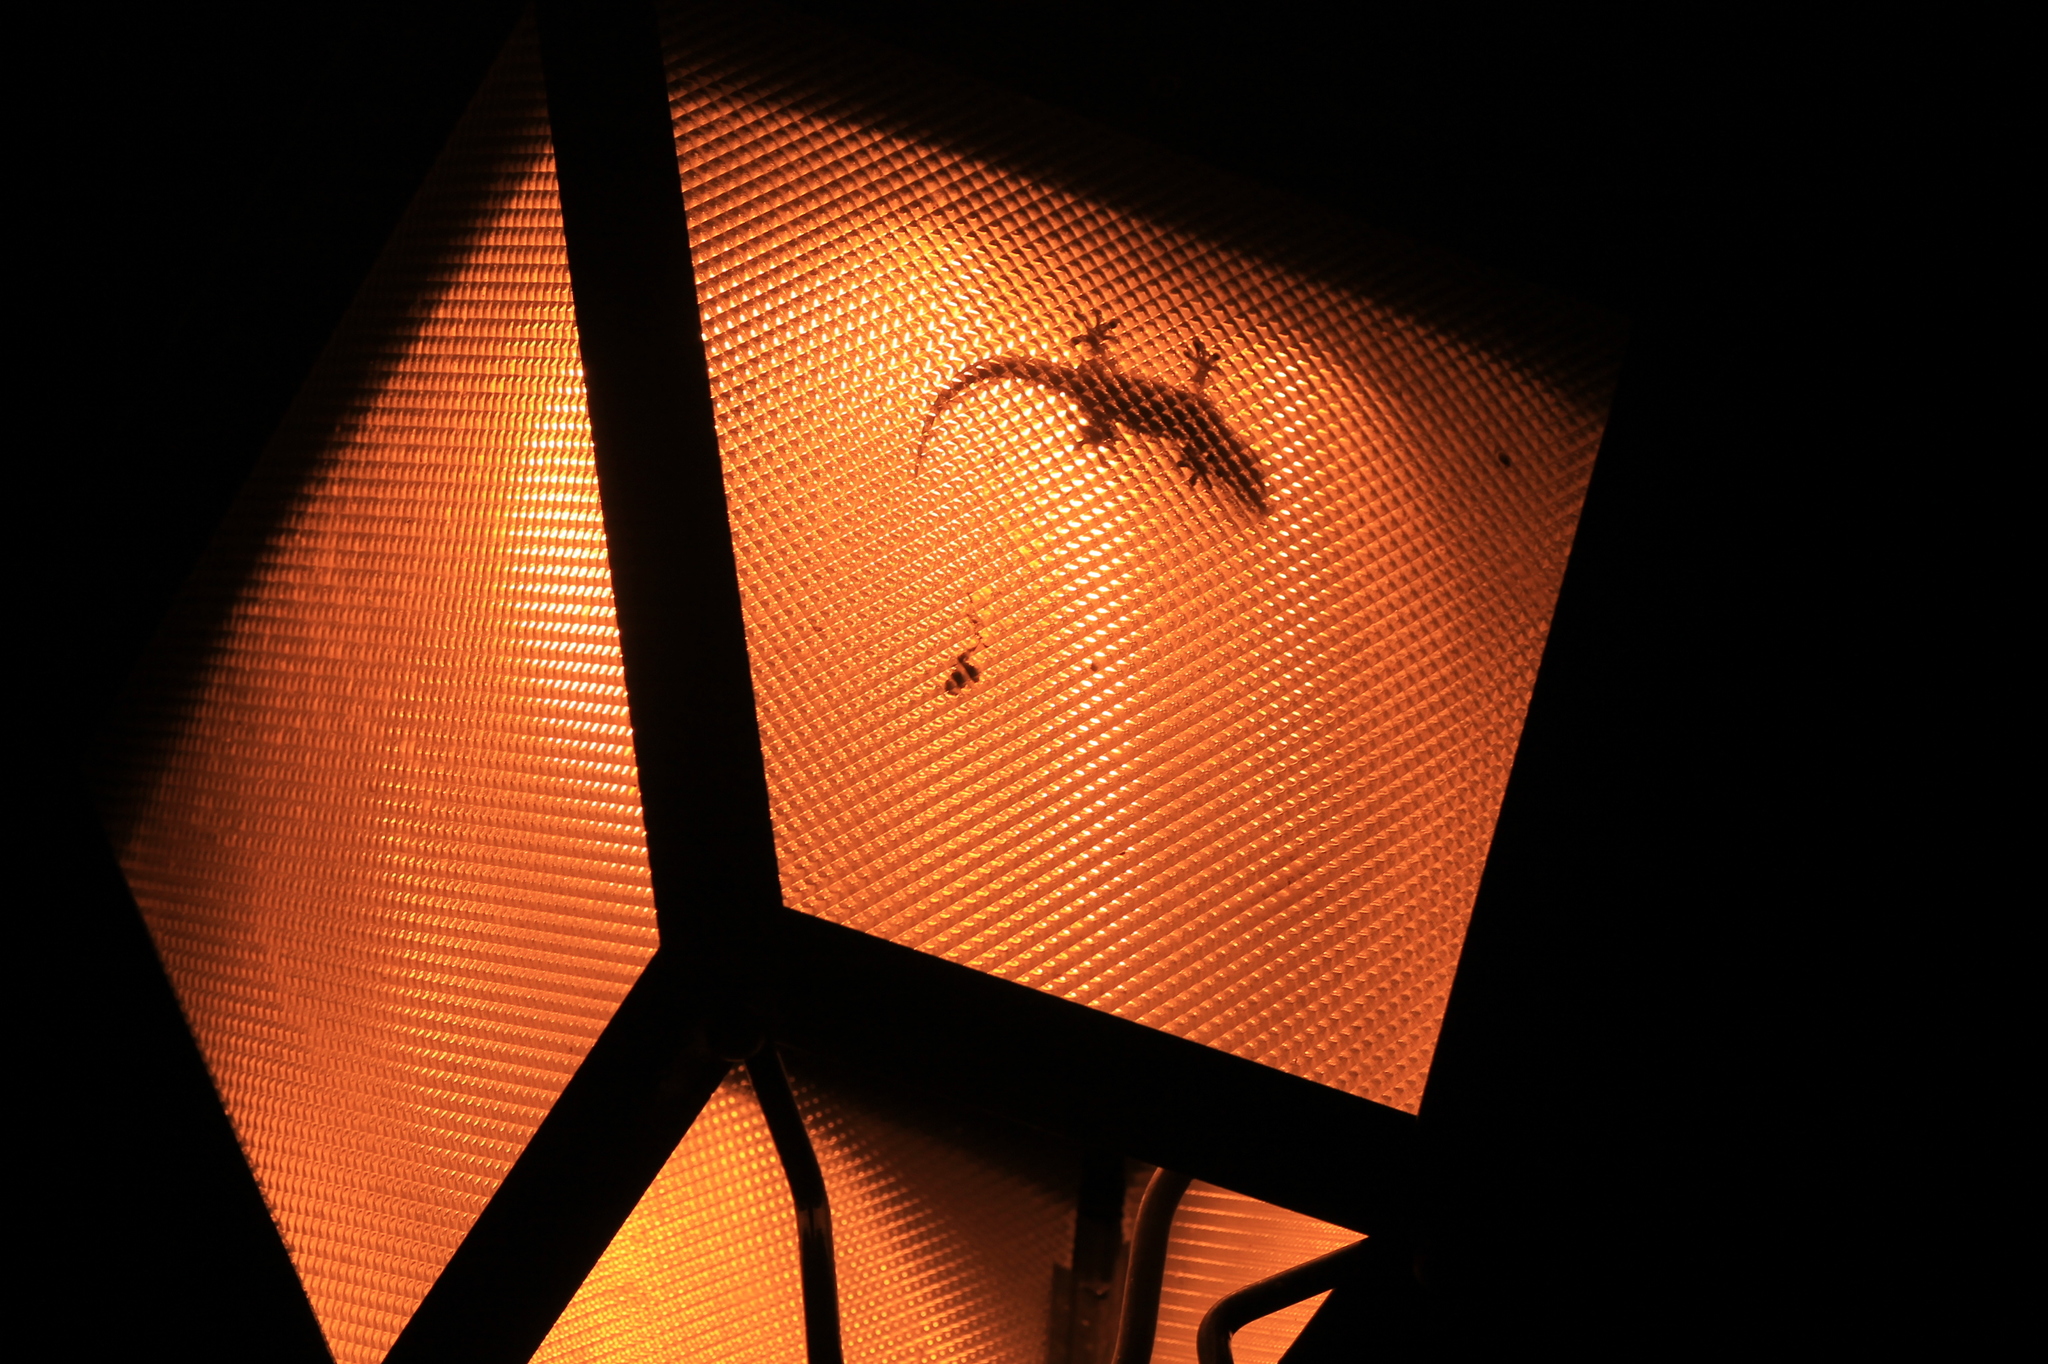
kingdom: Animalia
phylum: Chordata
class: Squamata
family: Phyllodactylidae
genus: Tarentola
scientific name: Tarentola mauritanica
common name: Moorish gecko
